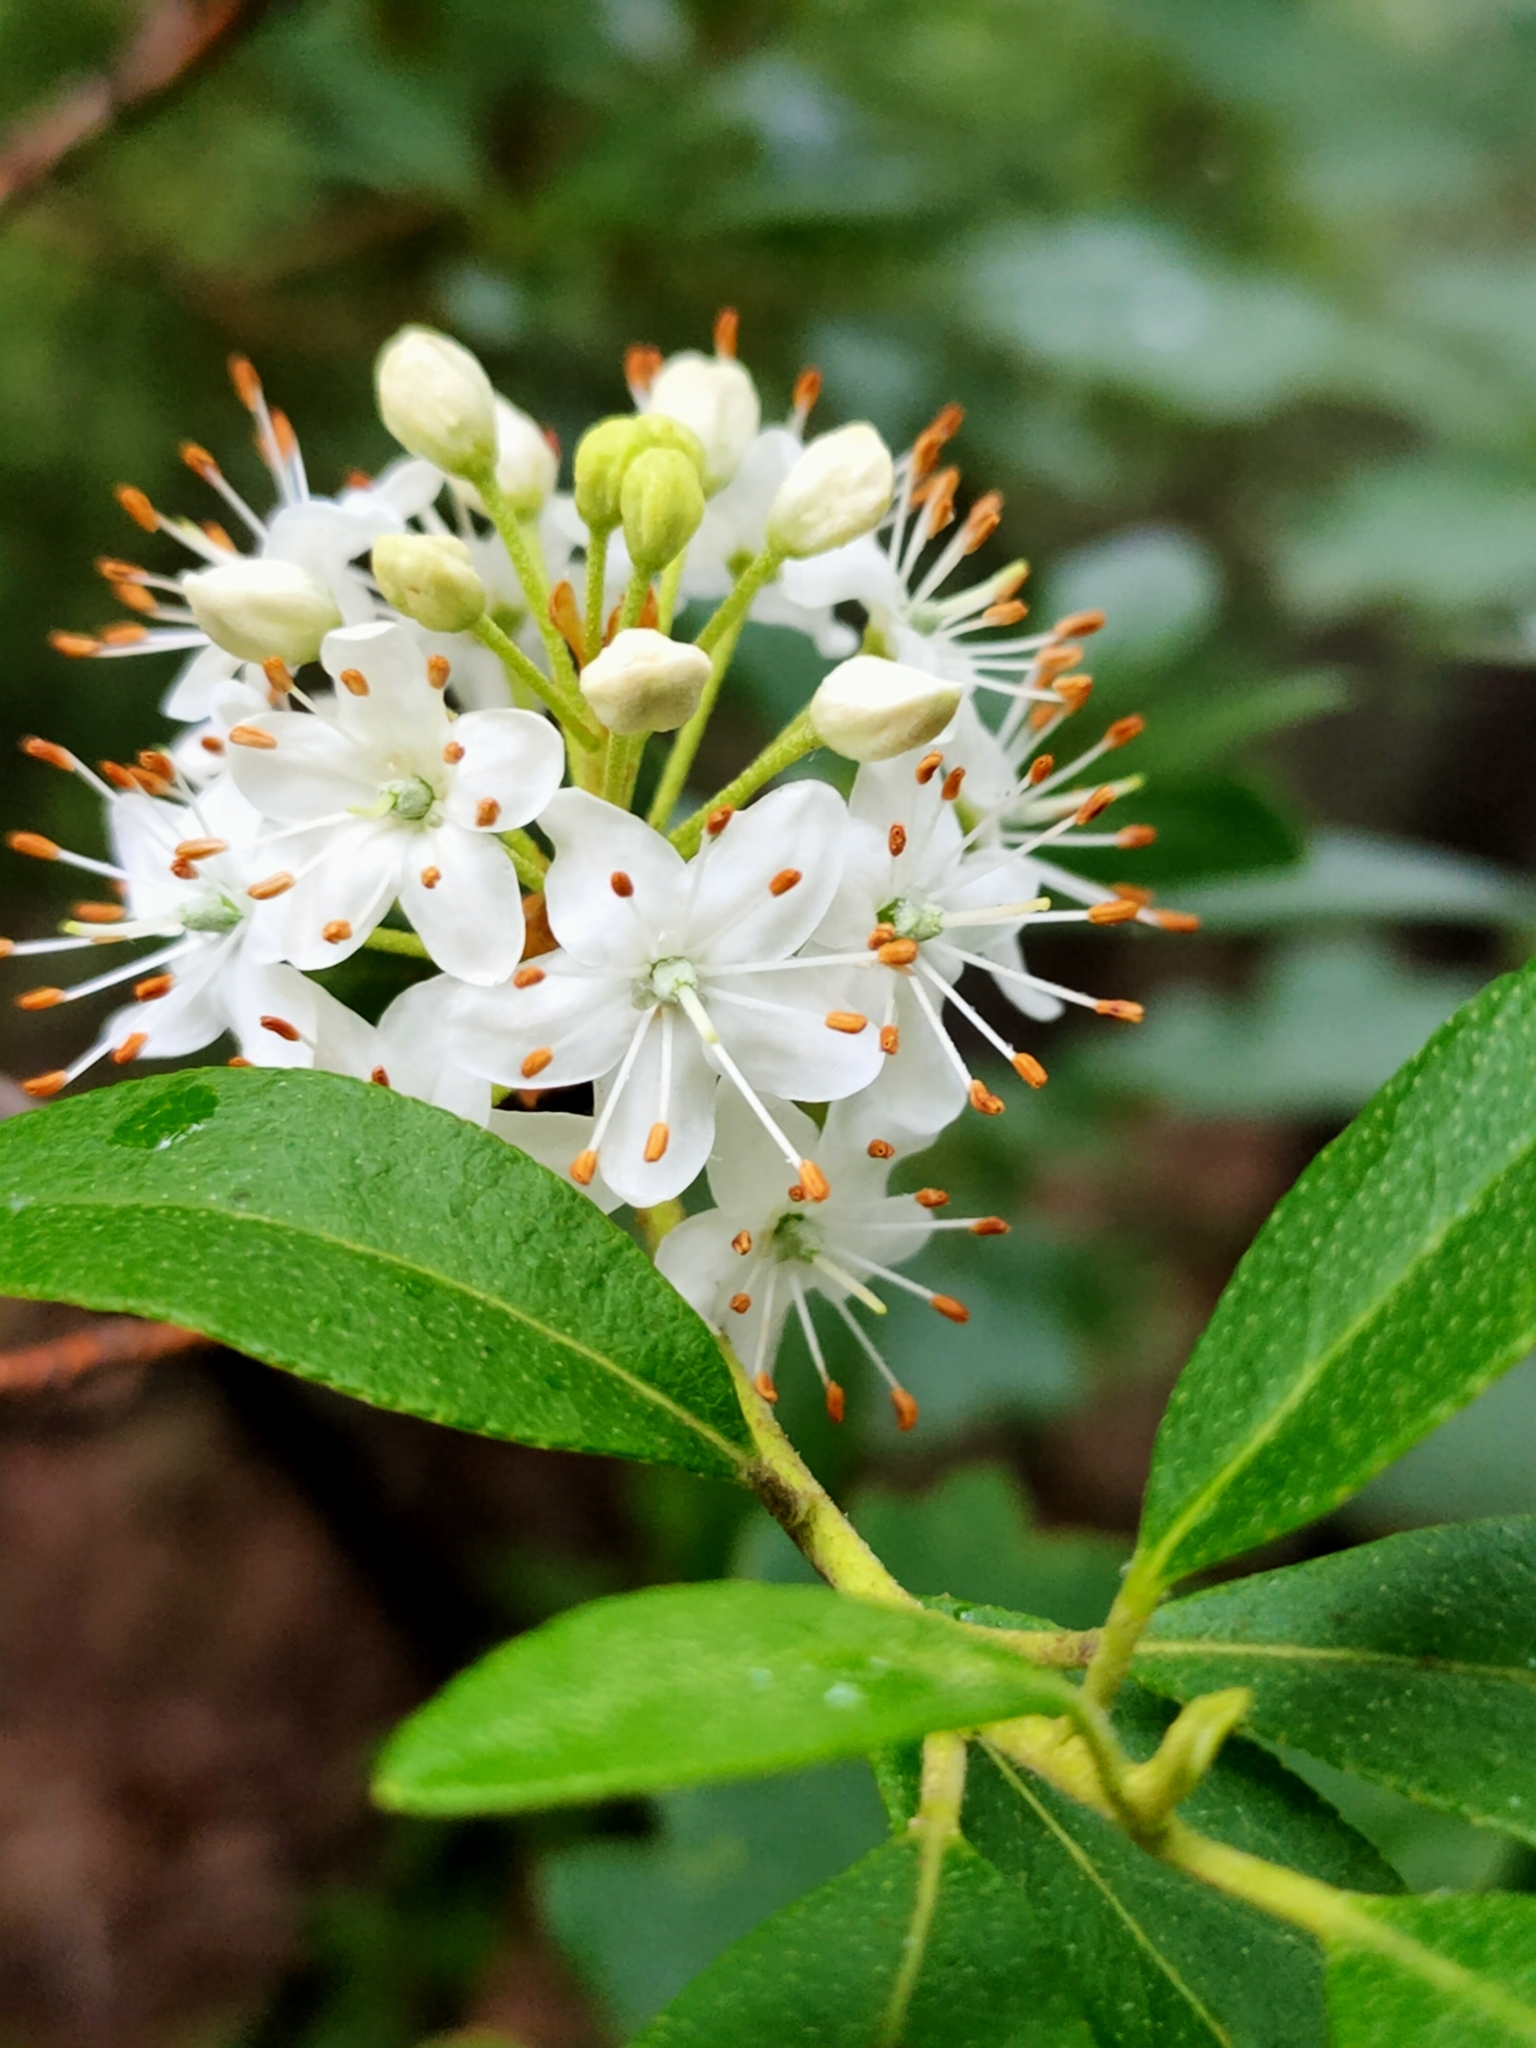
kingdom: Plantae
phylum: Tracheophyta
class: Magnoliopsida
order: Ericales
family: Ericaceae
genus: Rhododendron
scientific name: Rhododendron micranthum
